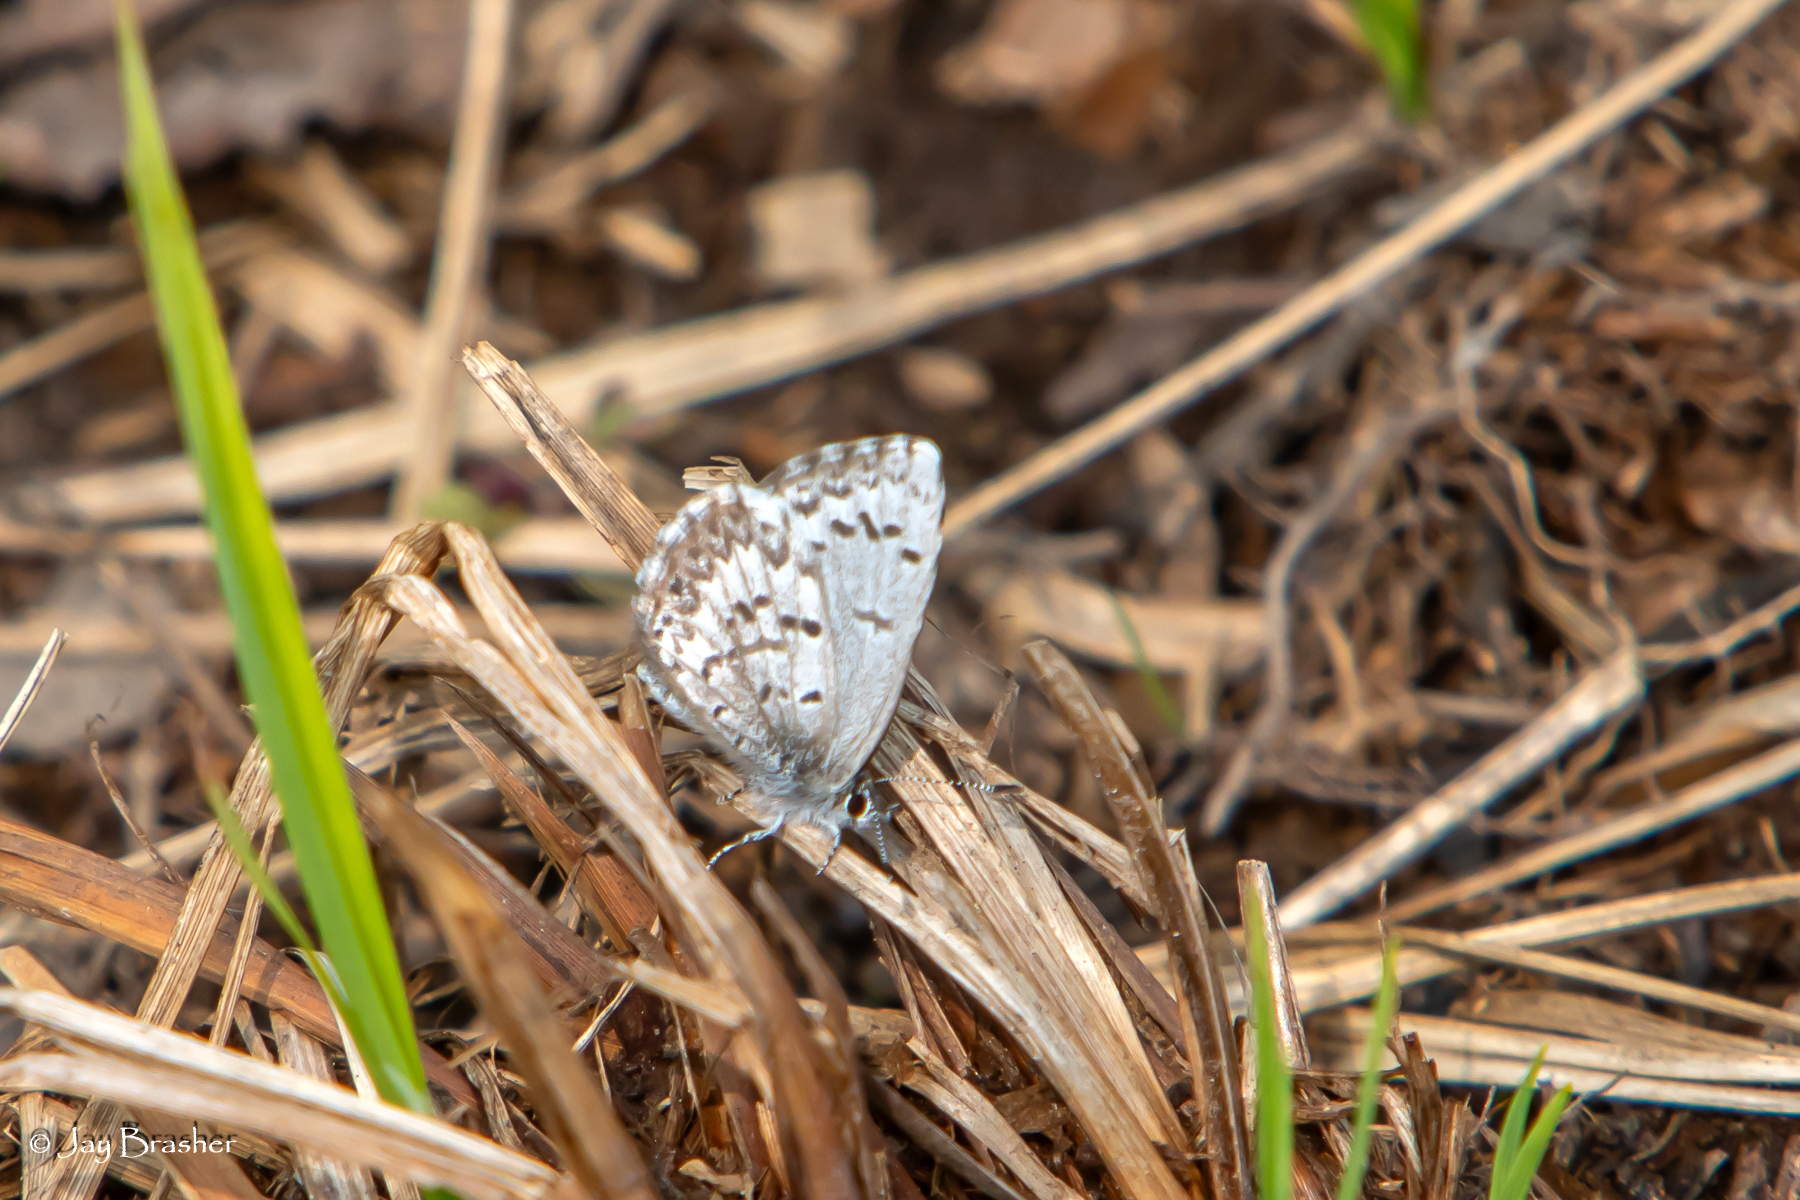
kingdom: Animalia
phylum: Arthropoda
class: Insecta
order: Lepidoptera
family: Lycaenidae
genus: Celastrina
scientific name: Celastrina lucia
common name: Lucia azure
